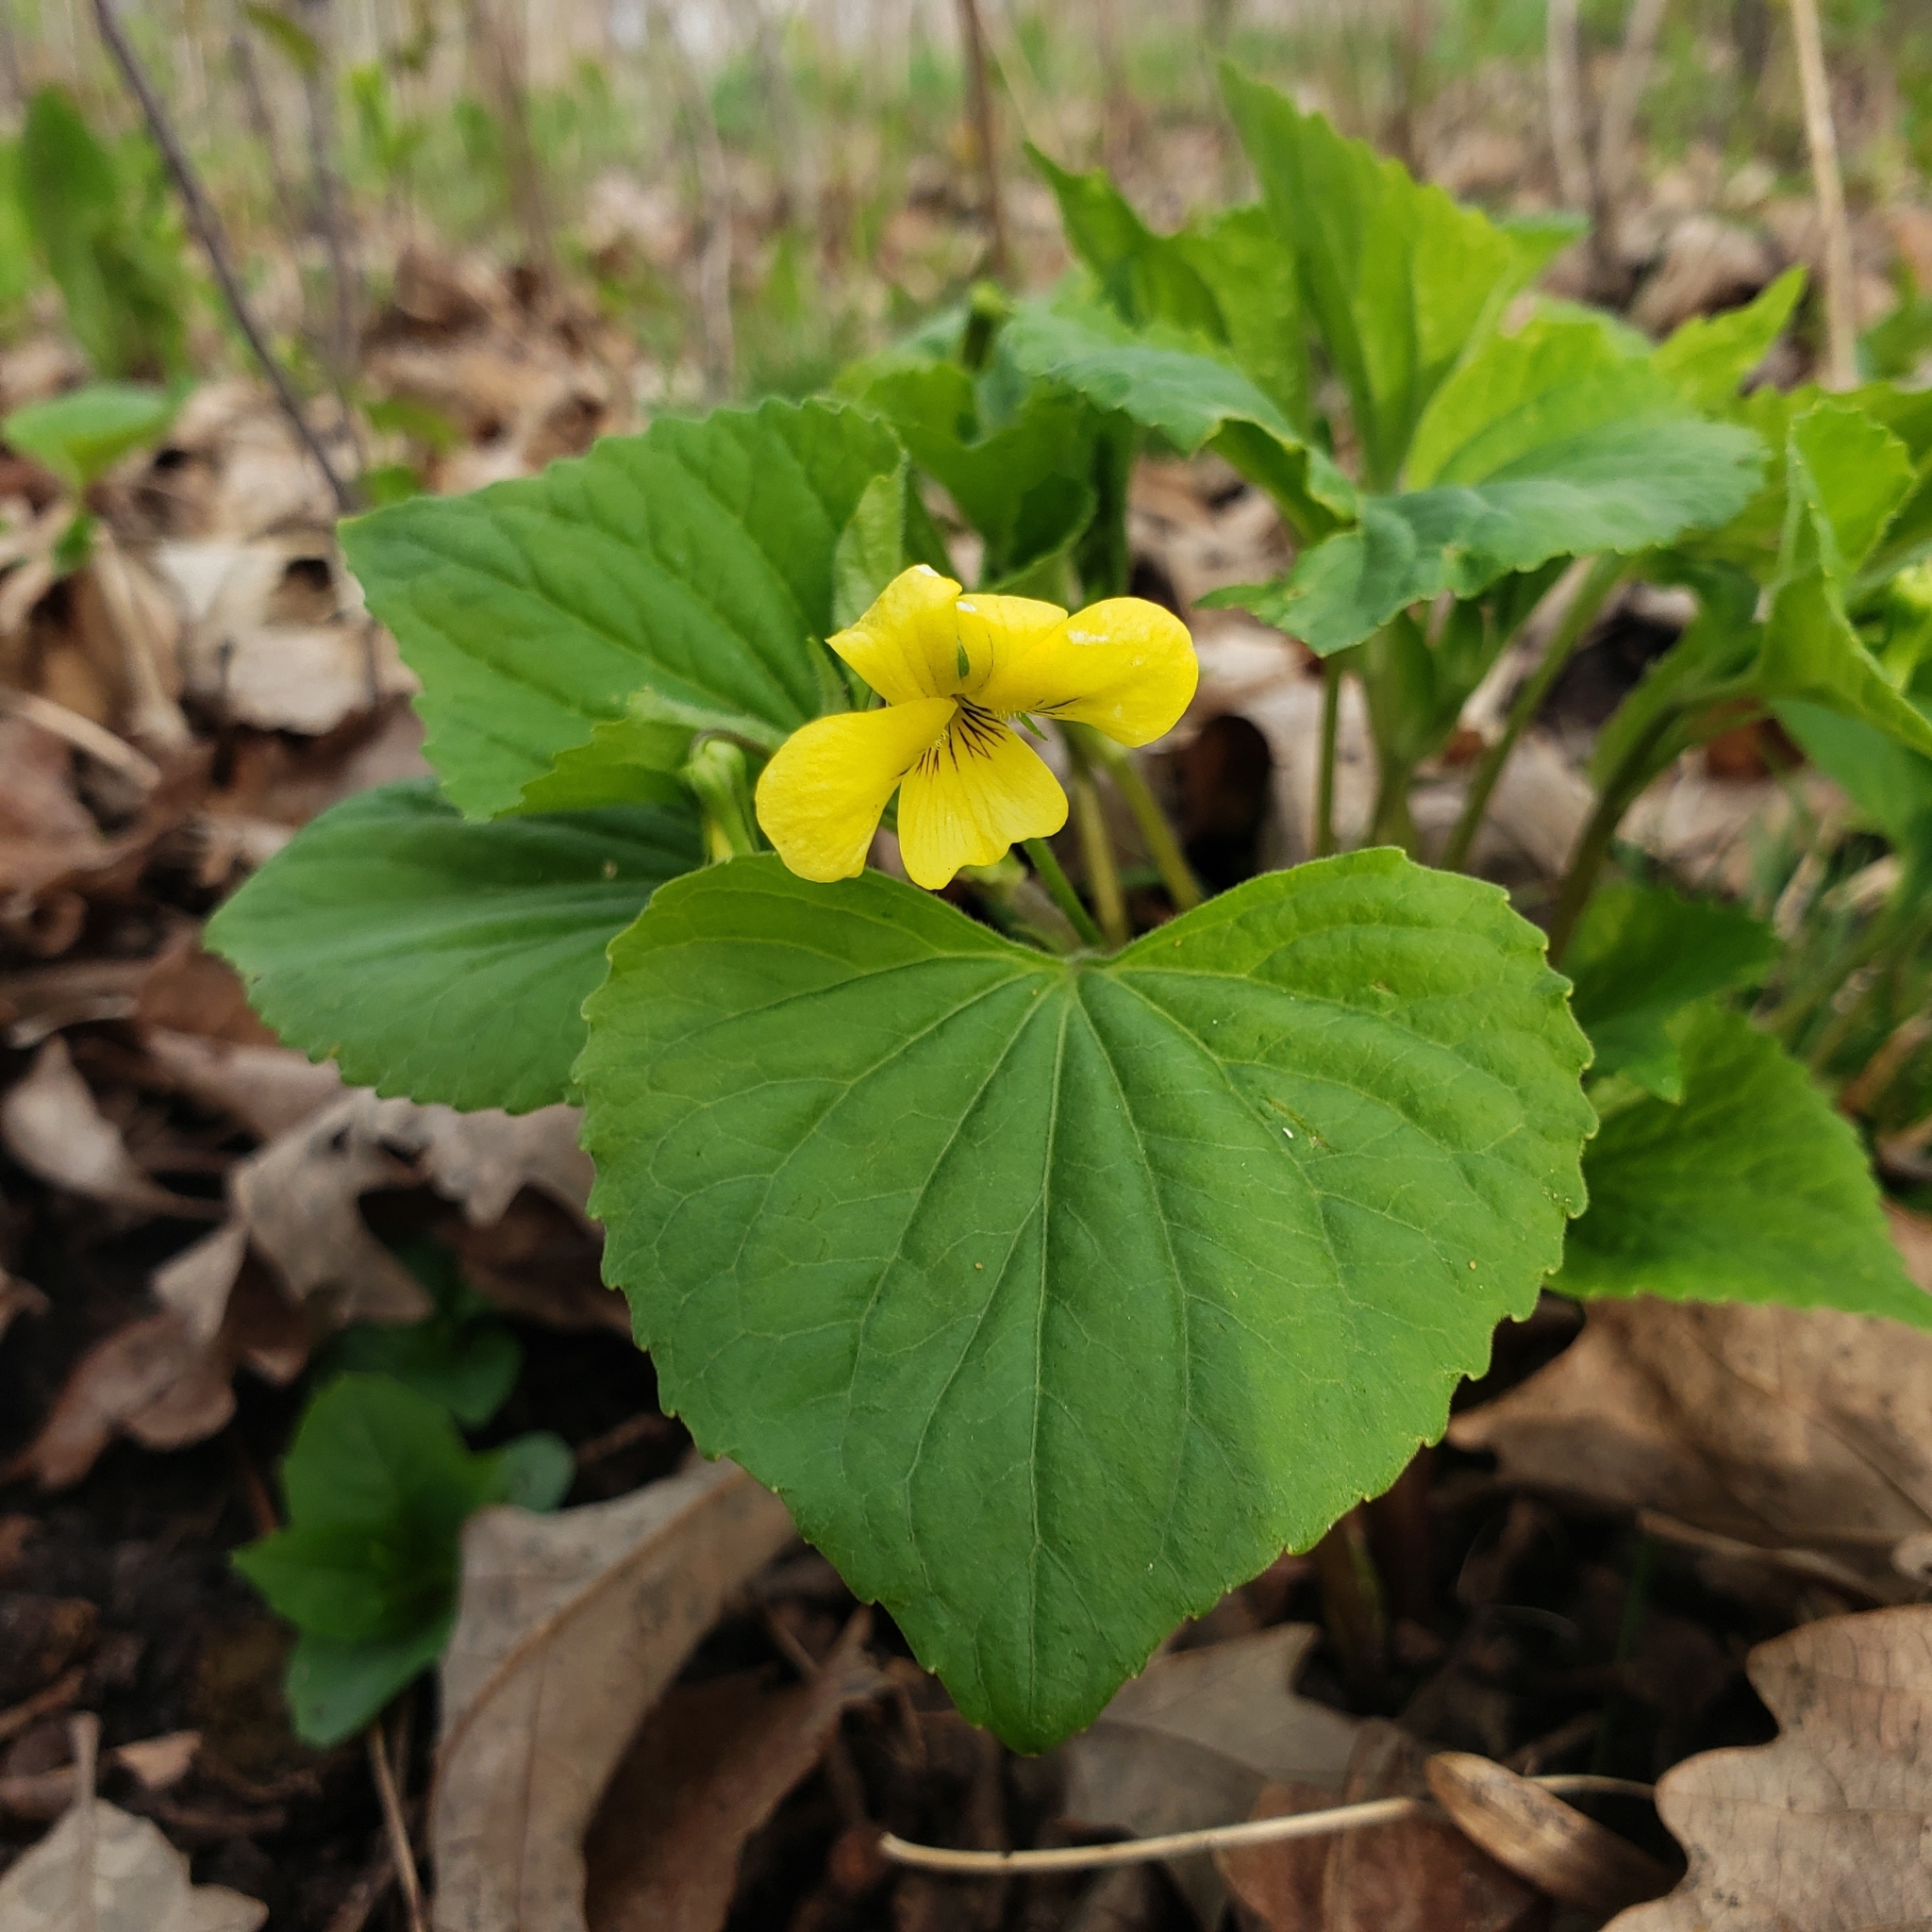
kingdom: Plantae
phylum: Tracheophyta
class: Magnoliopsida
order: Malpighiales
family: Violaceae
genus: Viola
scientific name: Viola eriocarpa
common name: Smooth yellow violet
